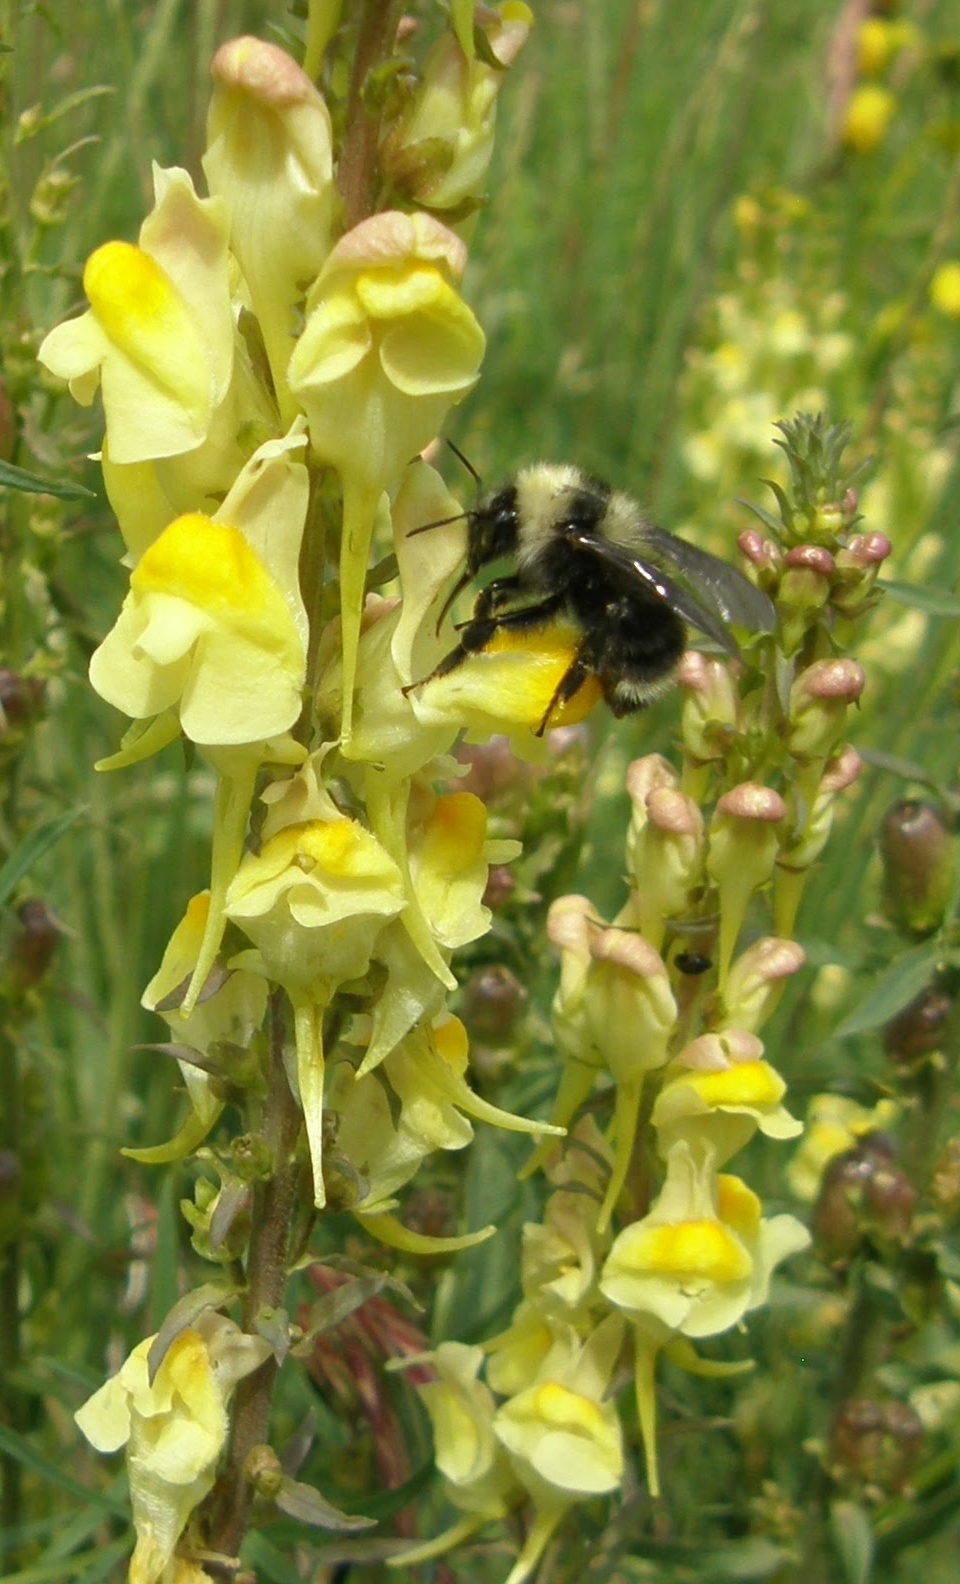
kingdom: Animalia
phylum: Arthropoda
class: Insecta
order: Hymenoptera
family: Apidae
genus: Bombus
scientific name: Bombus californicus
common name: California bumble bee
